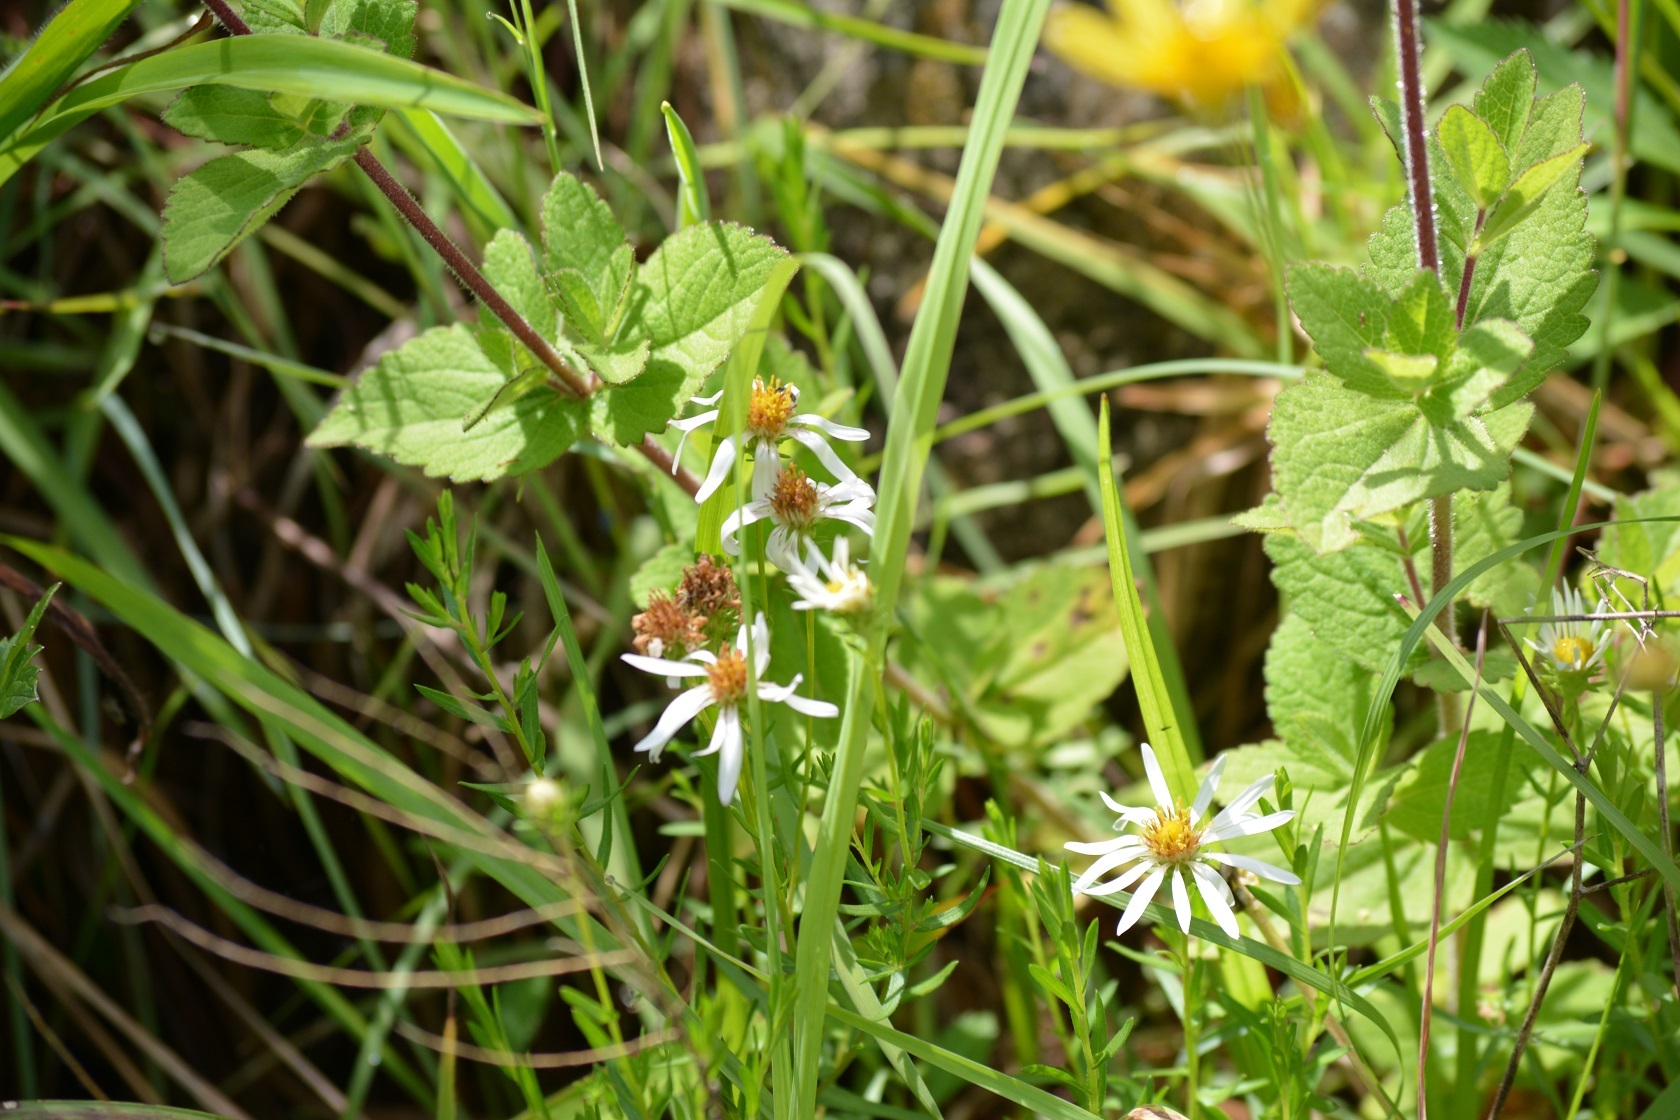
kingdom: Plantae
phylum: Tracheophyta
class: Magnoliopsida
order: Asterales
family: Asteraceae
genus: Symphyotrichum
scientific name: Symphyotrichum trilineatum
